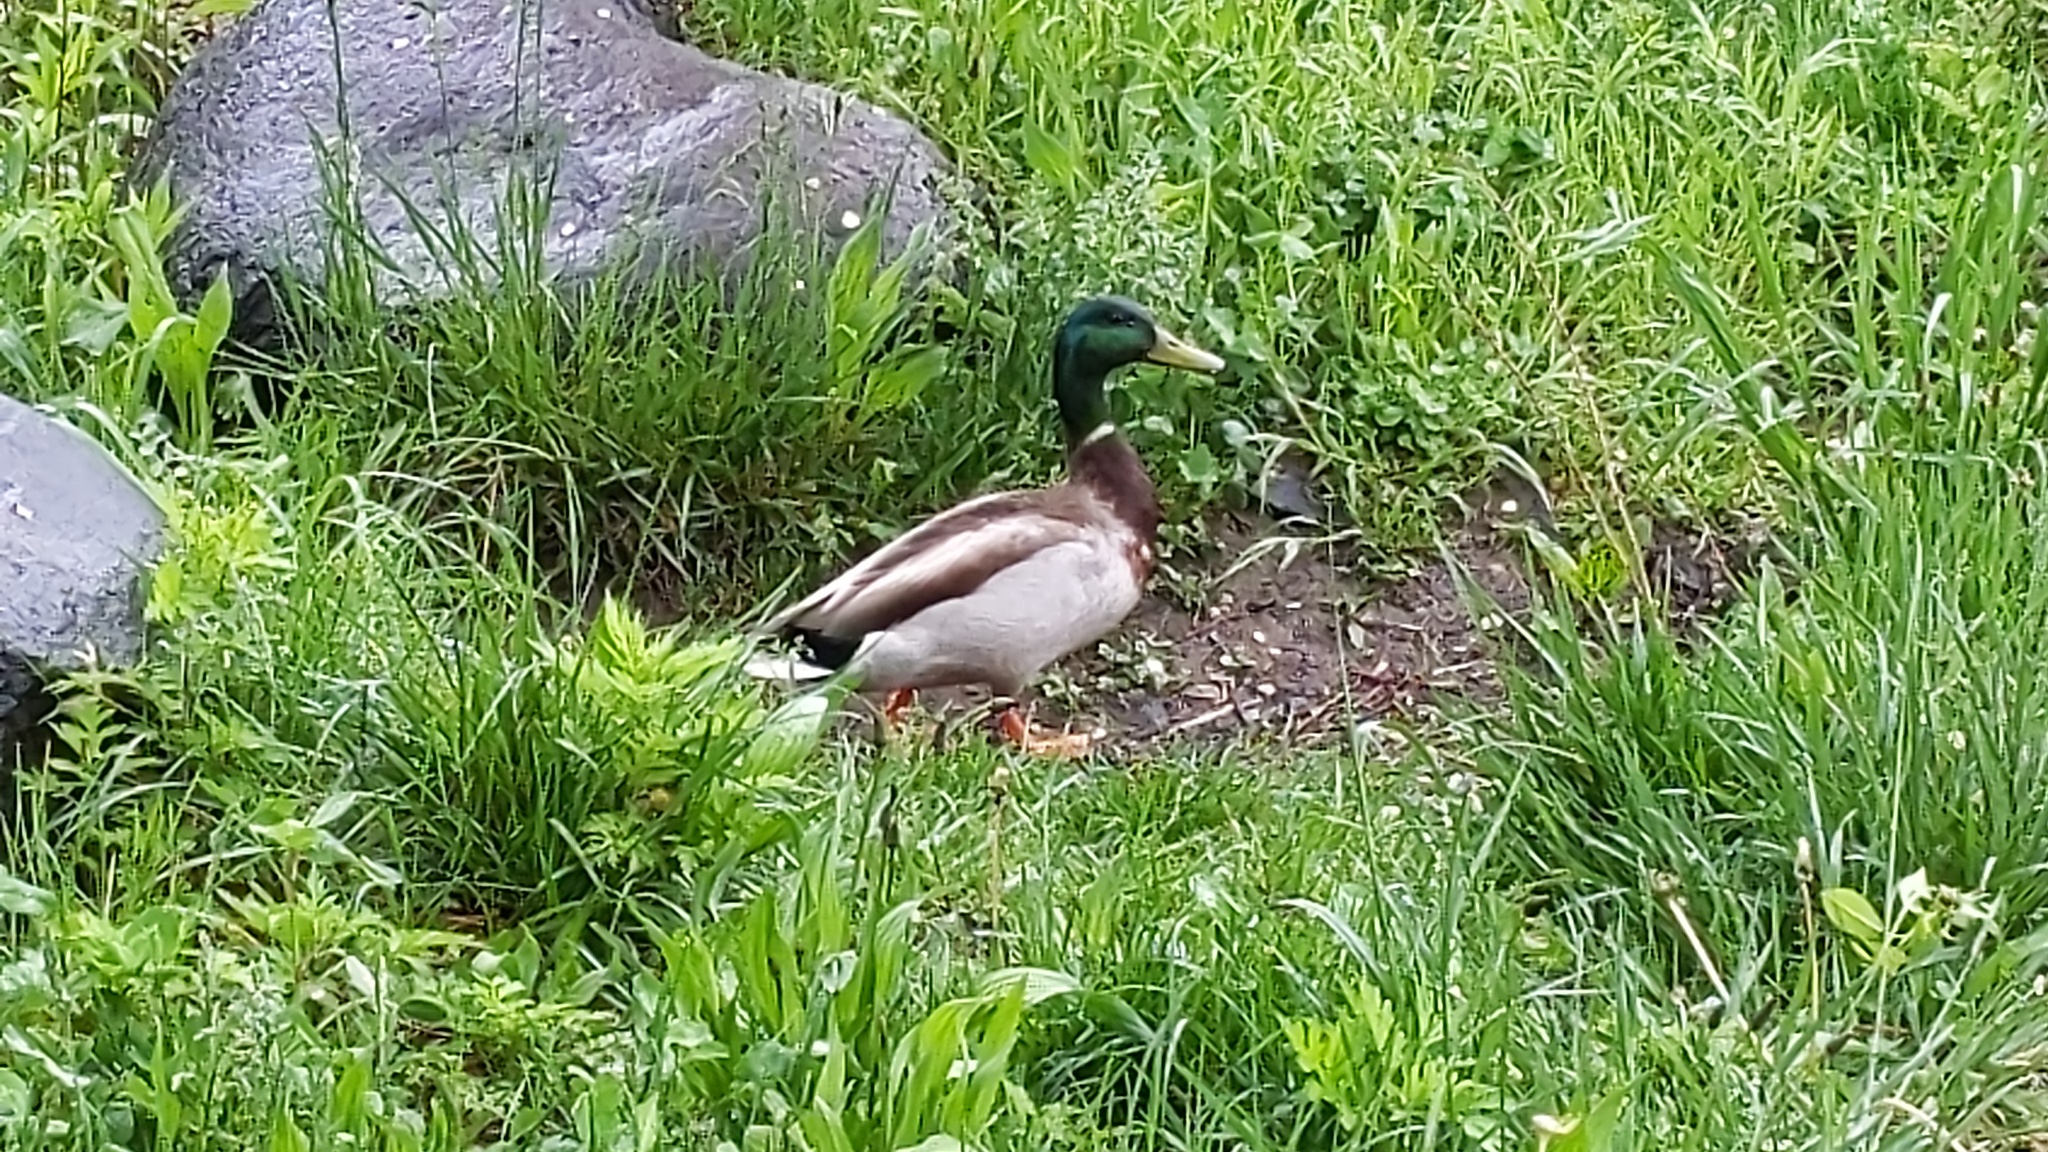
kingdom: Animalia
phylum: Chordata
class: Aves
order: Anseriformes
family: Anatidae
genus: Anas
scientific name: Anas platyrhynchos
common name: Mallard
